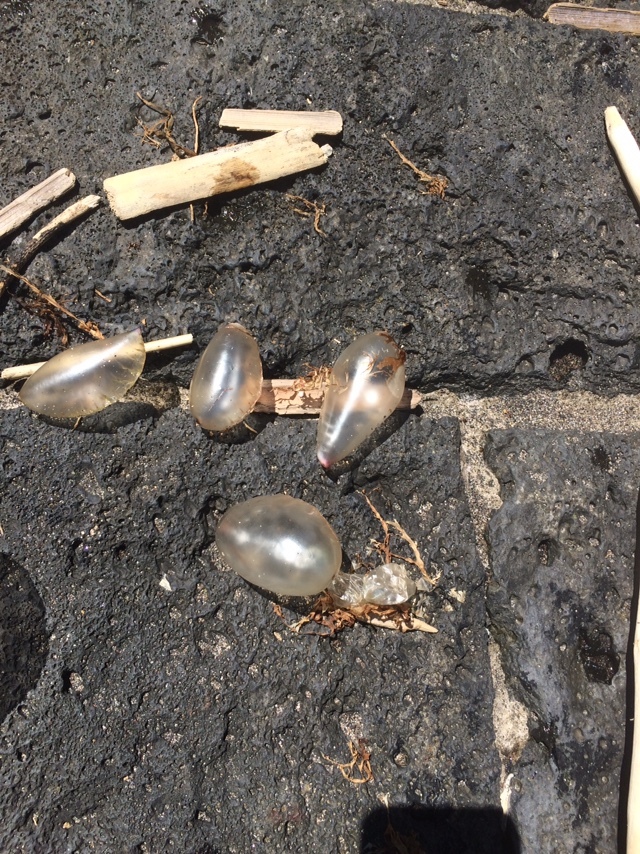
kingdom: Animalia
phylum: Cnidaria
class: Hydrozoa
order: Siphonophorae
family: Physaliidae
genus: Physalia
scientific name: Physalia physalis
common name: Portuguese man-of-war
